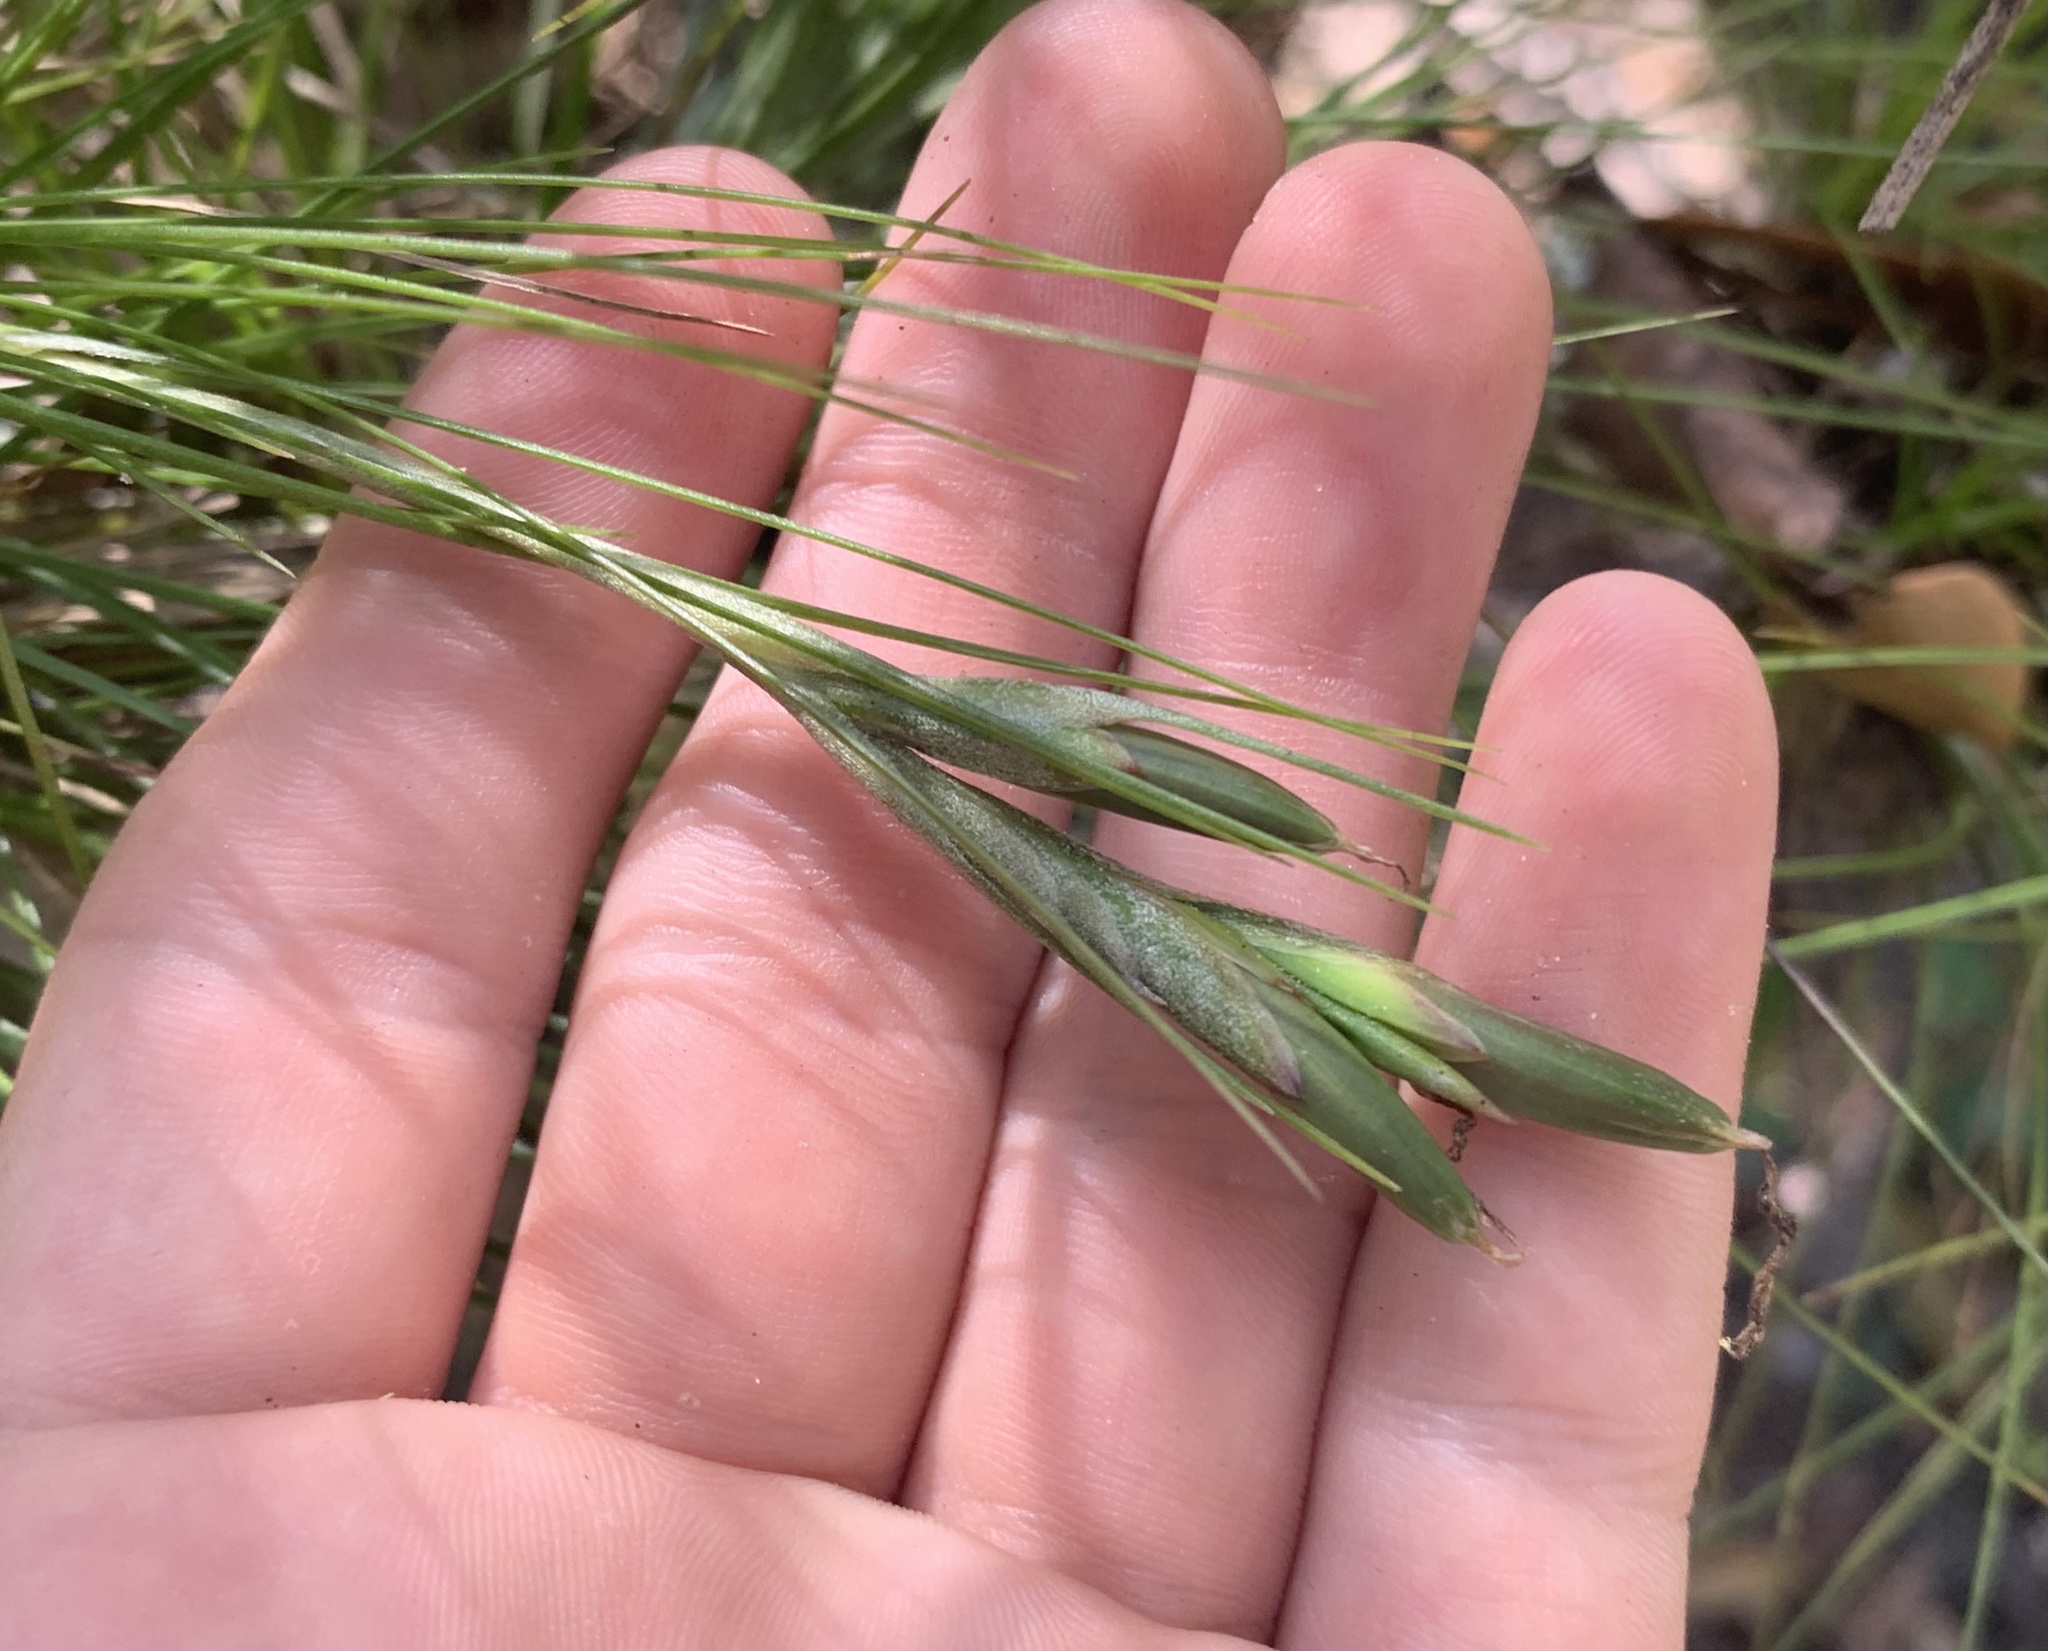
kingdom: Plantae
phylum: Tracheophyta
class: Liliopsida
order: Poales
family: Bromeliaceae
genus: Tillandsia
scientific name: Tillandsia setacea
